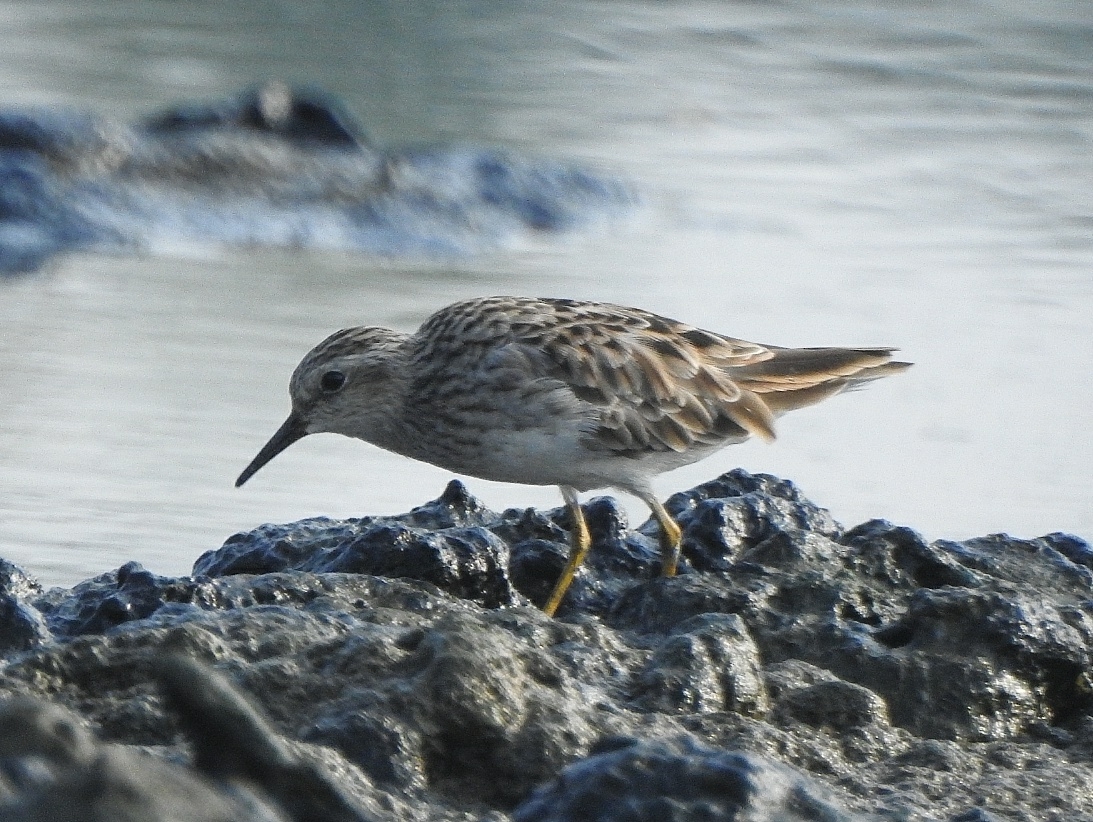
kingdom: Animalia
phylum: Chordata
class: Aves
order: Charadriiformes
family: Scolopacidae
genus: Calidris
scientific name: Calidris subminuta
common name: Long-toed stint
